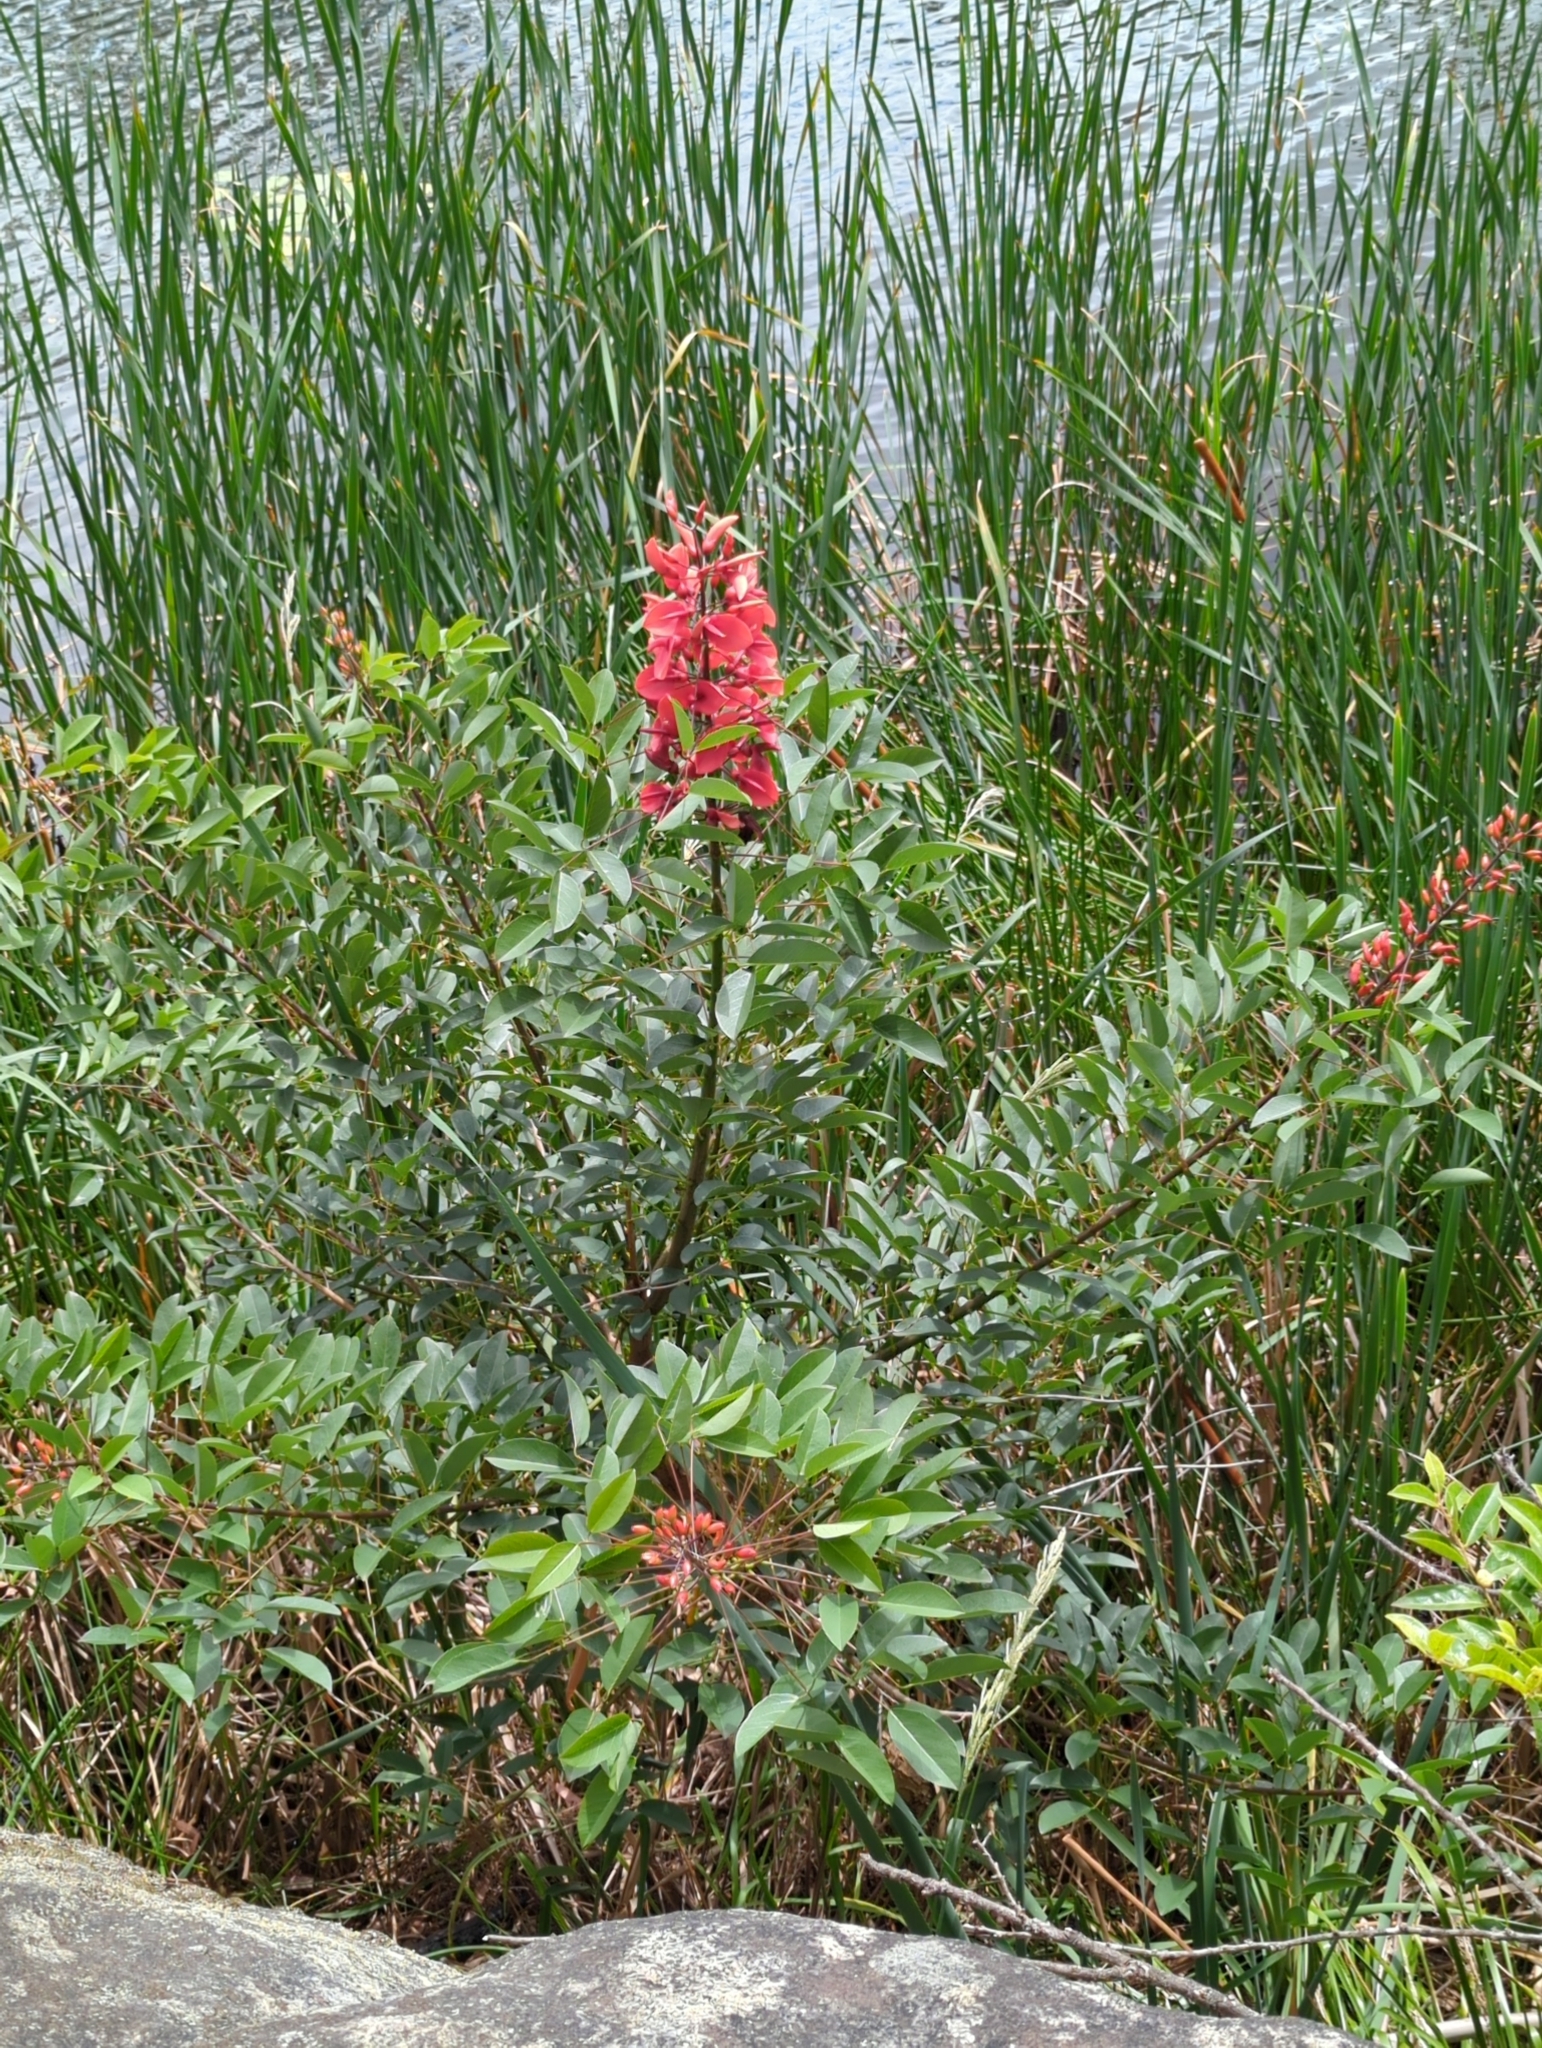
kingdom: Plantae
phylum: Tracheophyta
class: Magnoliopsida
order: Fabales
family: Fabaceae
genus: Erythrina
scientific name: Erythrina crista-galli
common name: Cockspur coral tree
